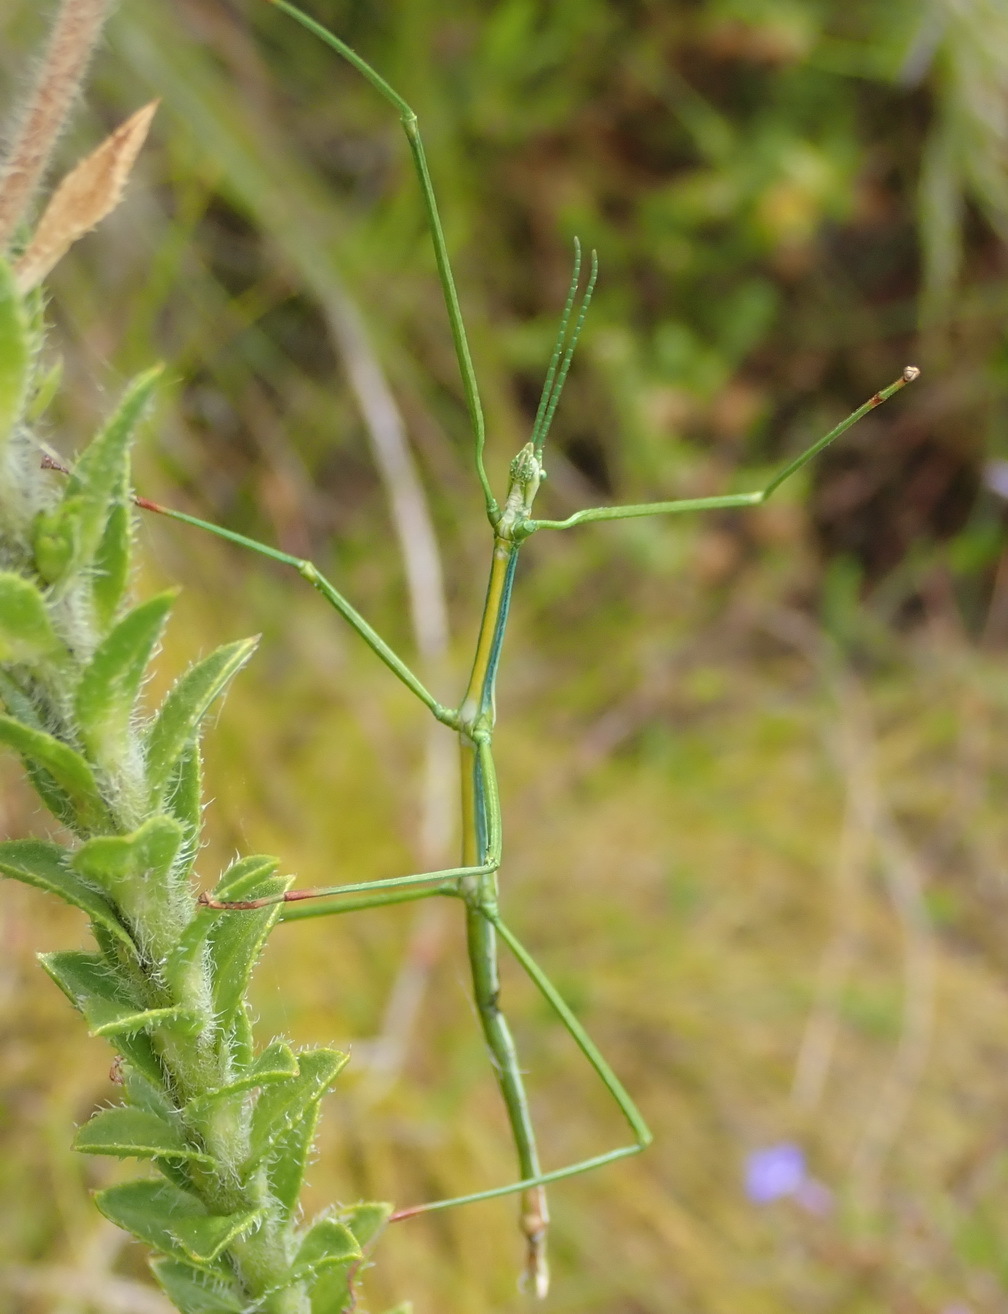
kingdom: Animalia
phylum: Arthropoda
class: Insecta
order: Phasmida
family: Bacillidae
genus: Phalces
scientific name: Phalces brevis
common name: Cape stick insect
